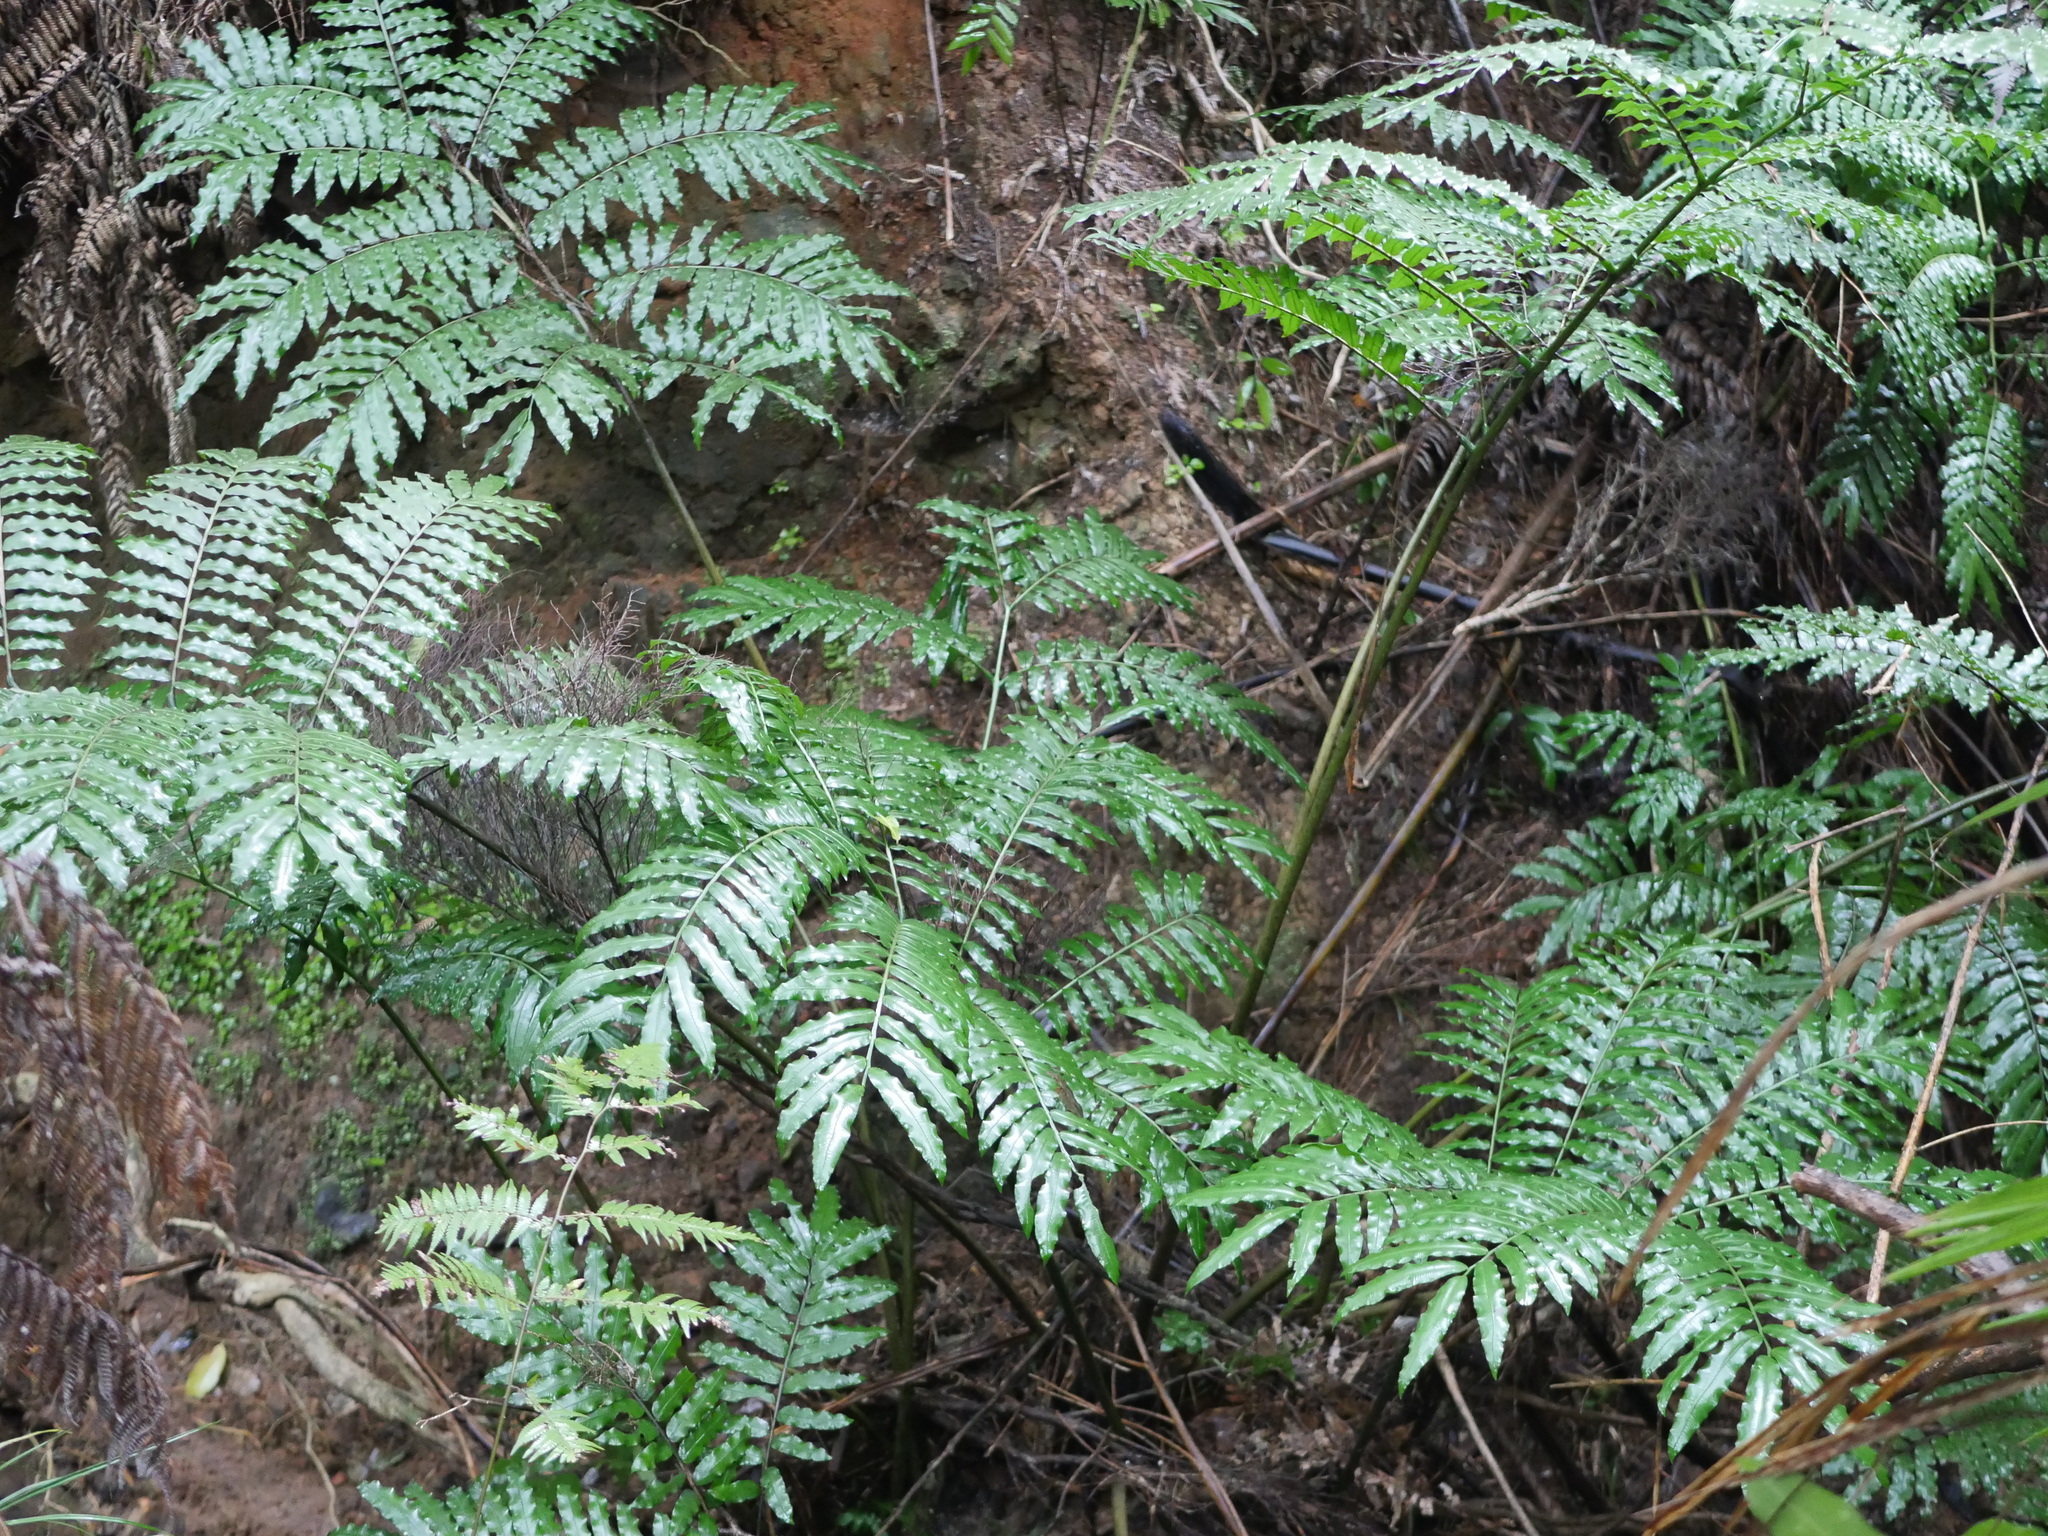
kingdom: Plantae
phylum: Tracheophyta
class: Polypodiopsida
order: Marattiales
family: Marattiaceae
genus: Ptisana
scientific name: Ptisana salicina
